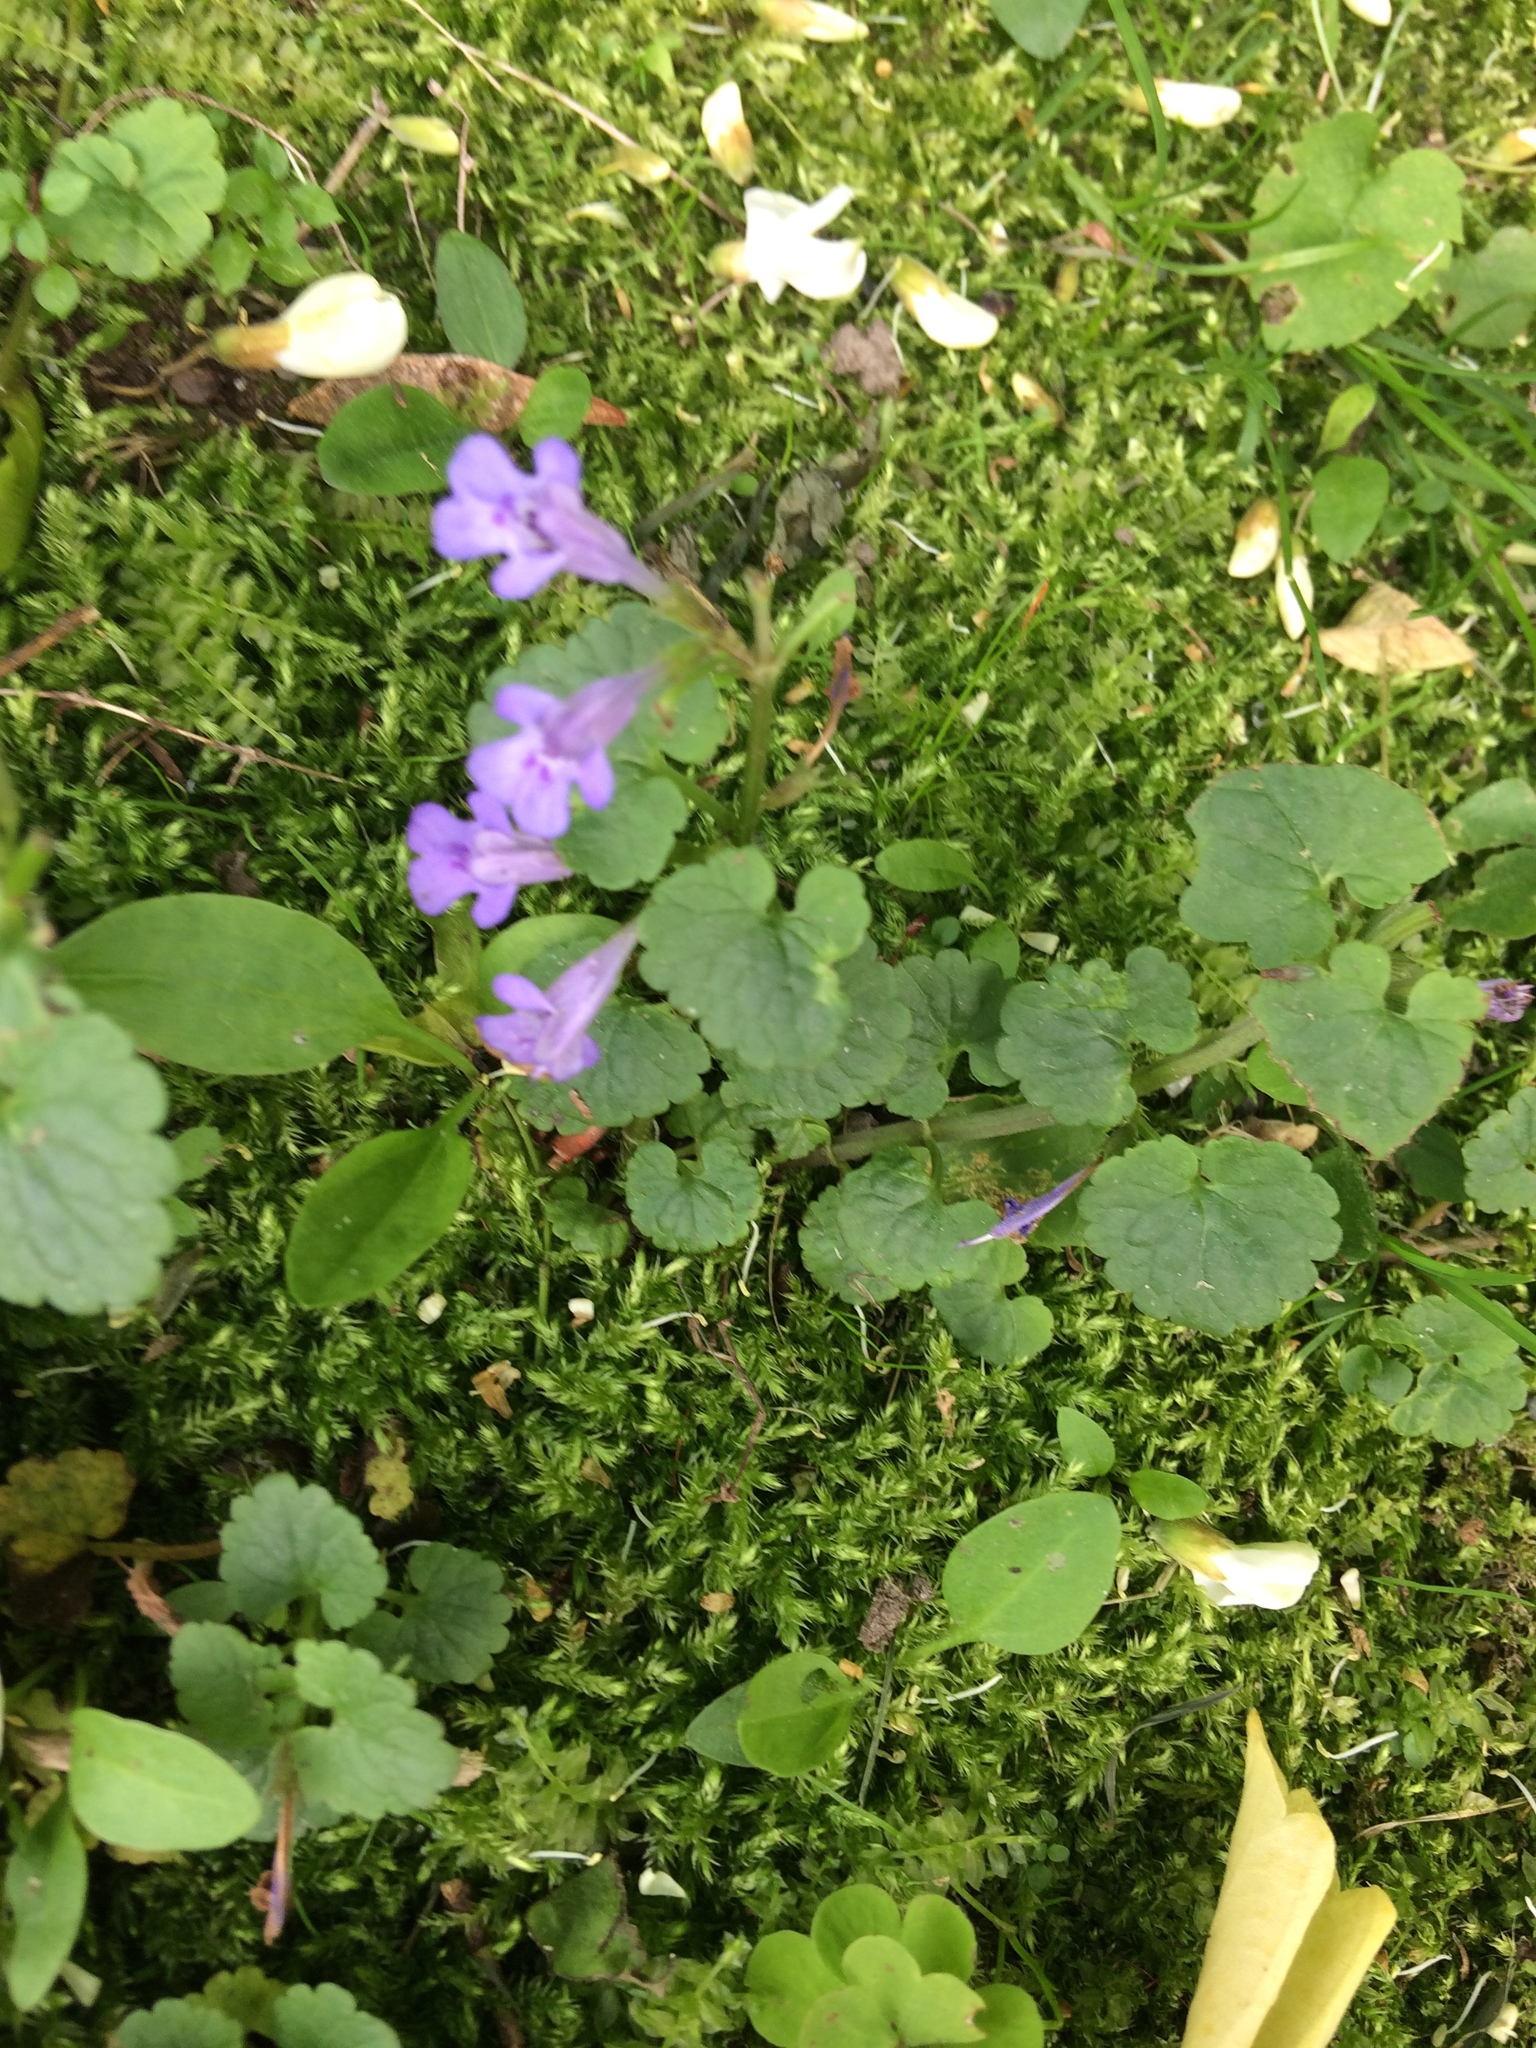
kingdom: Plantae
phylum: Tracheophyta
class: Magnoliopsida
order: Lamiales
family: Lamiaceae
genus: Glechoma
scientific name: Glechoma hederacea
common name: Ground ivy
